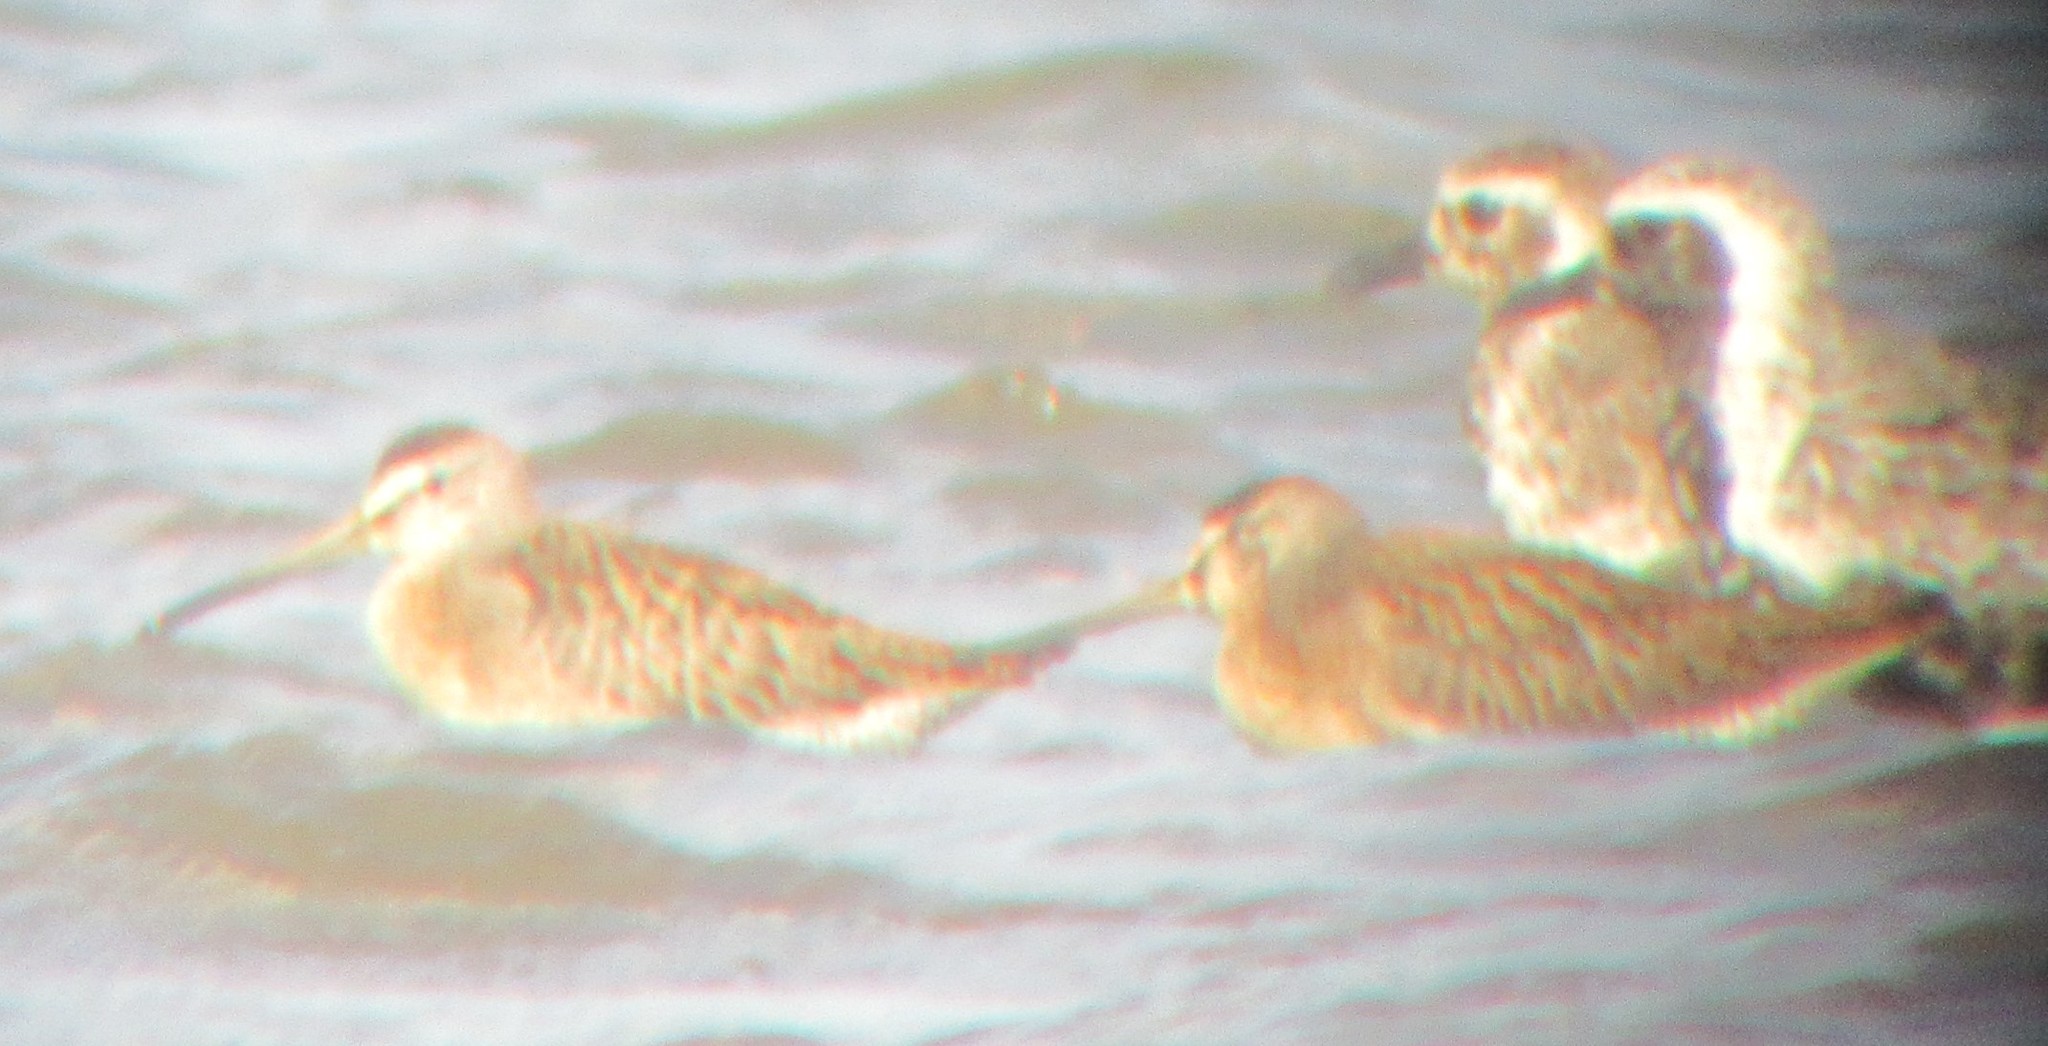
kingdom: Animalia
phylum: Chordata
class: Aves
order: Charadriiformes
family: Scolopacidae
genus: Limnodromus
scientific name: Limnodromus griseus
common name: Short-billed dowitcher
